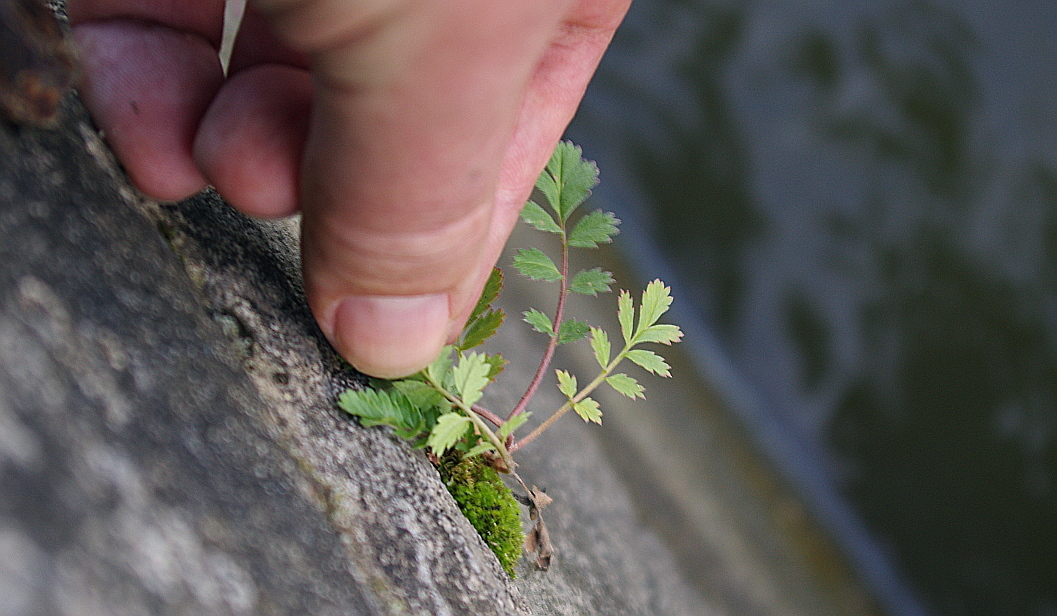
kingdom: Plantae
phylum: Tracheophyta
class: Magnoliopsida
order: Rosales
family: Rosaceae
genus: Potentilla
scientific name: Potentilla supina
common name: Prostrate cinquefoil
